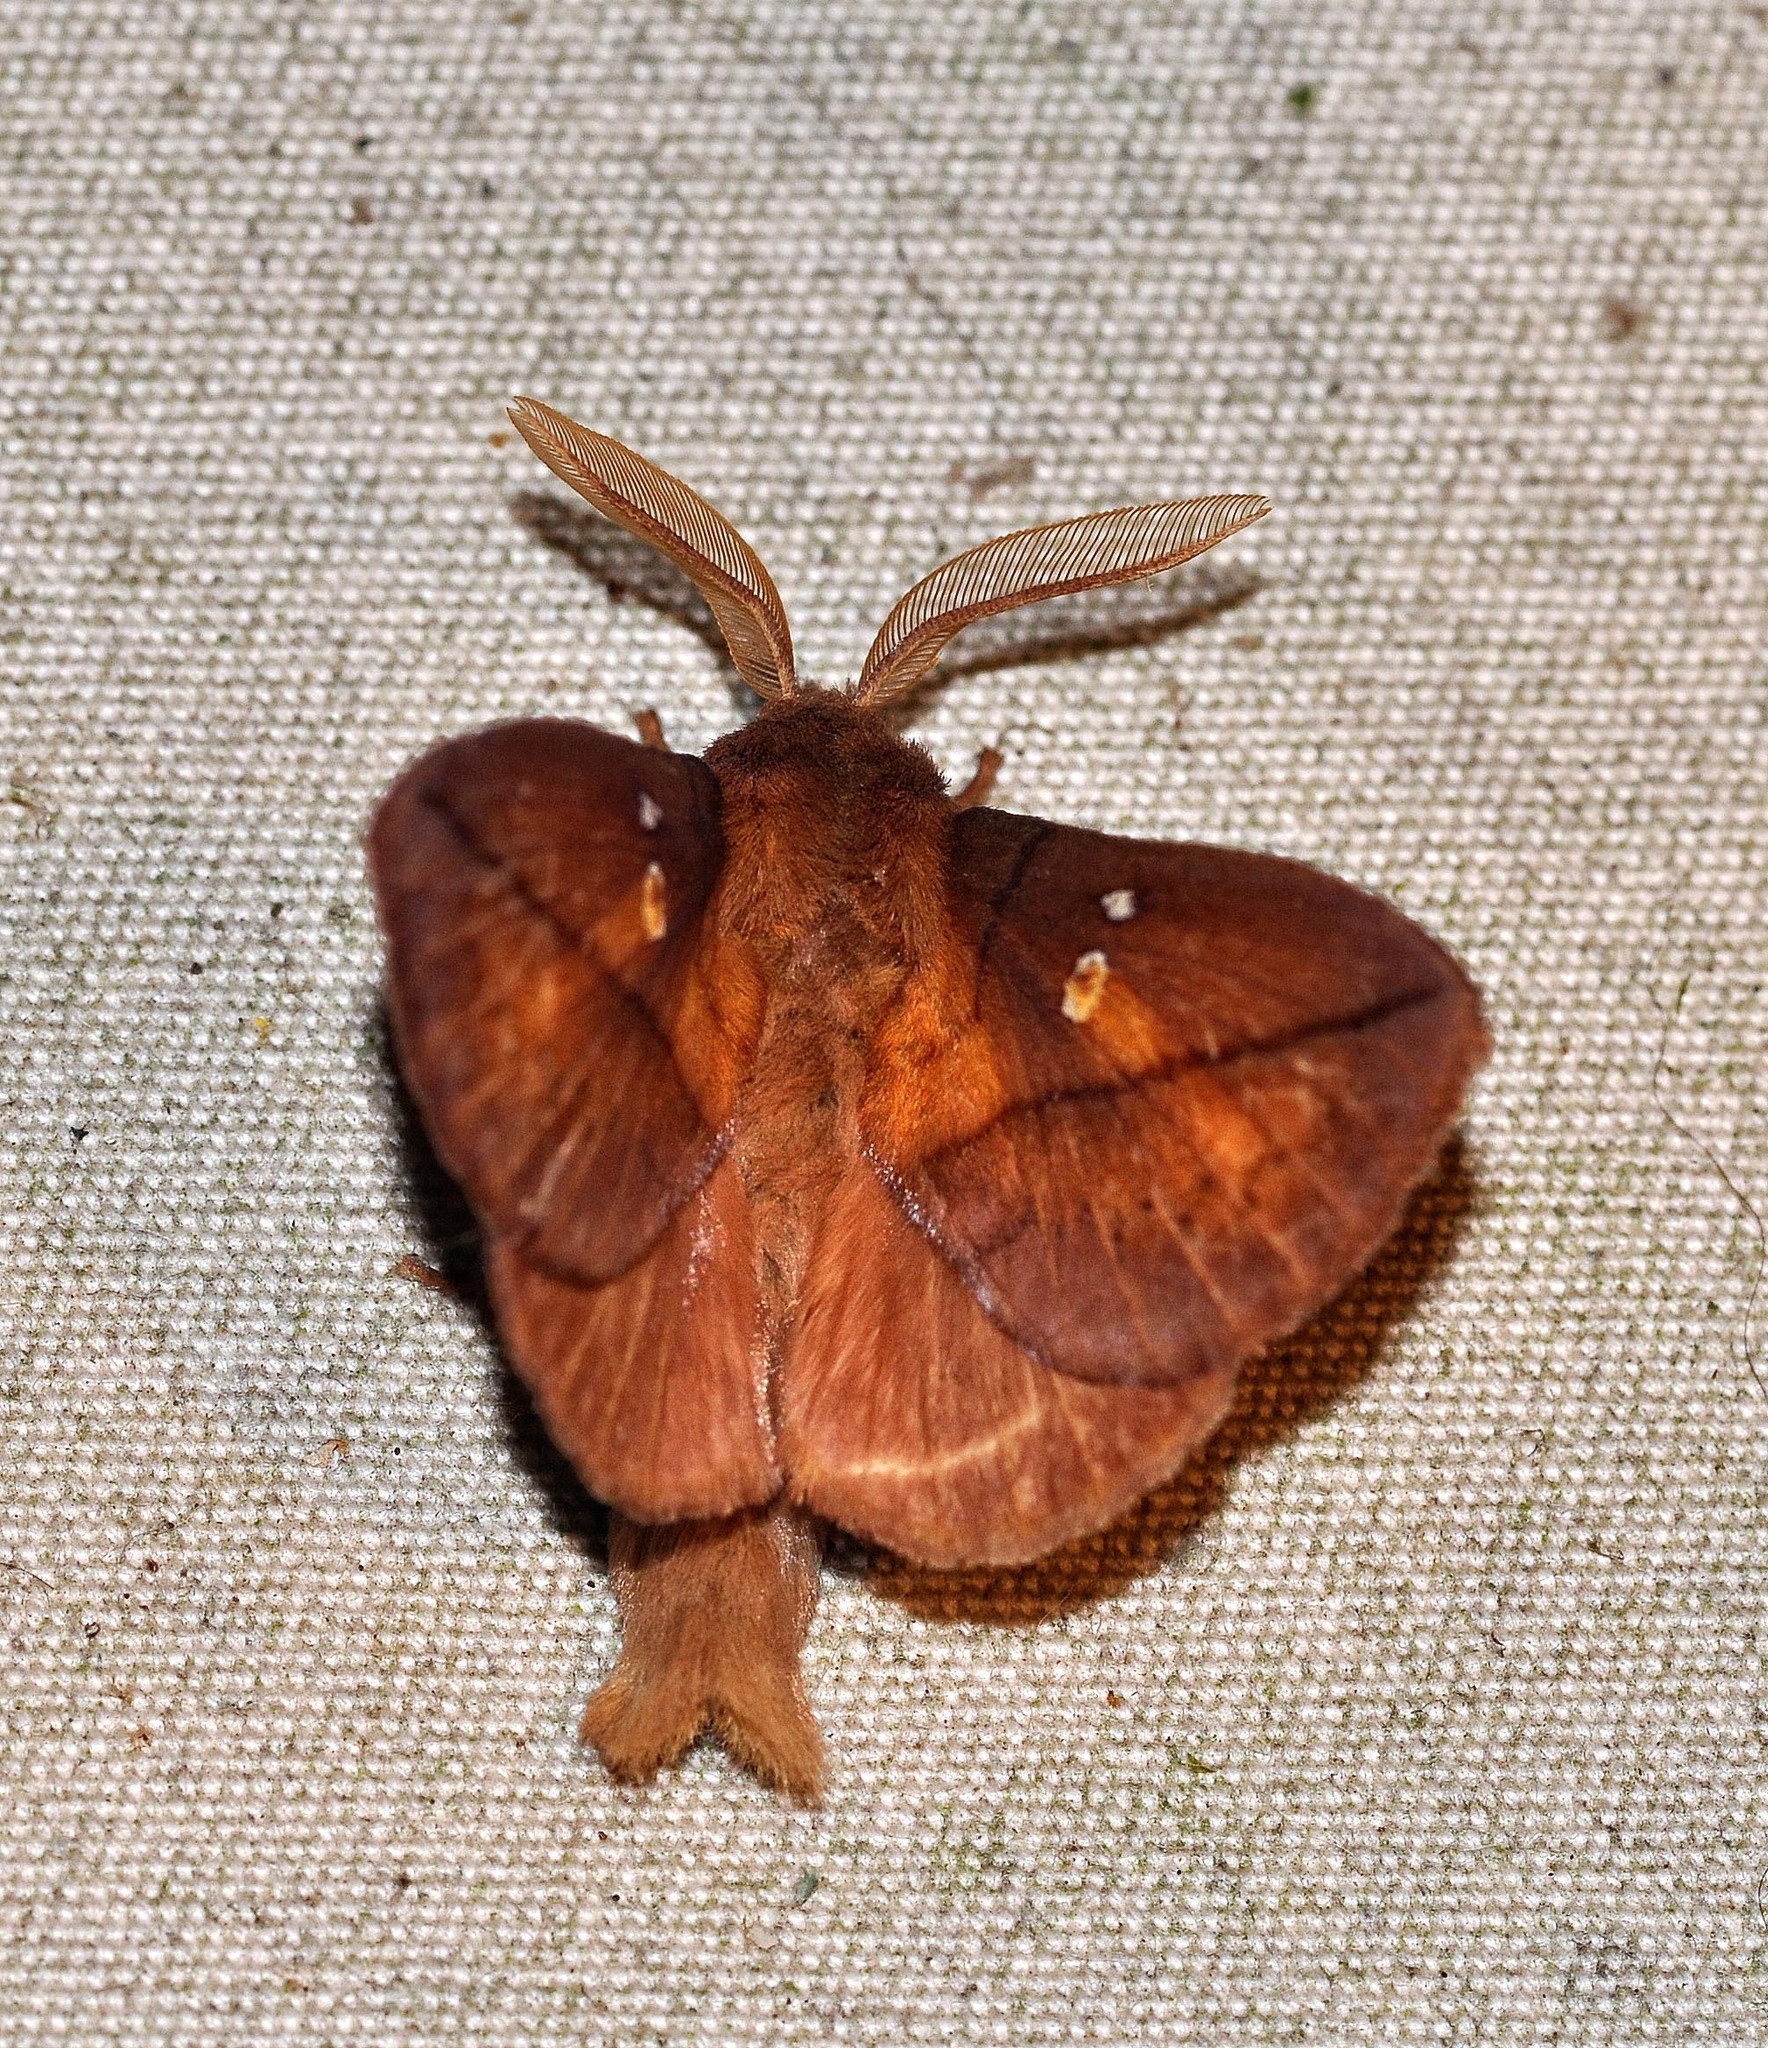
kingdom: Animalia
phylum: Arthropoda
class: Insecta
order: Lepidoptera
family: Lasiocampidae
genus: Euthrix
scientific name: Euthrix potatoria
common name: Drinker
